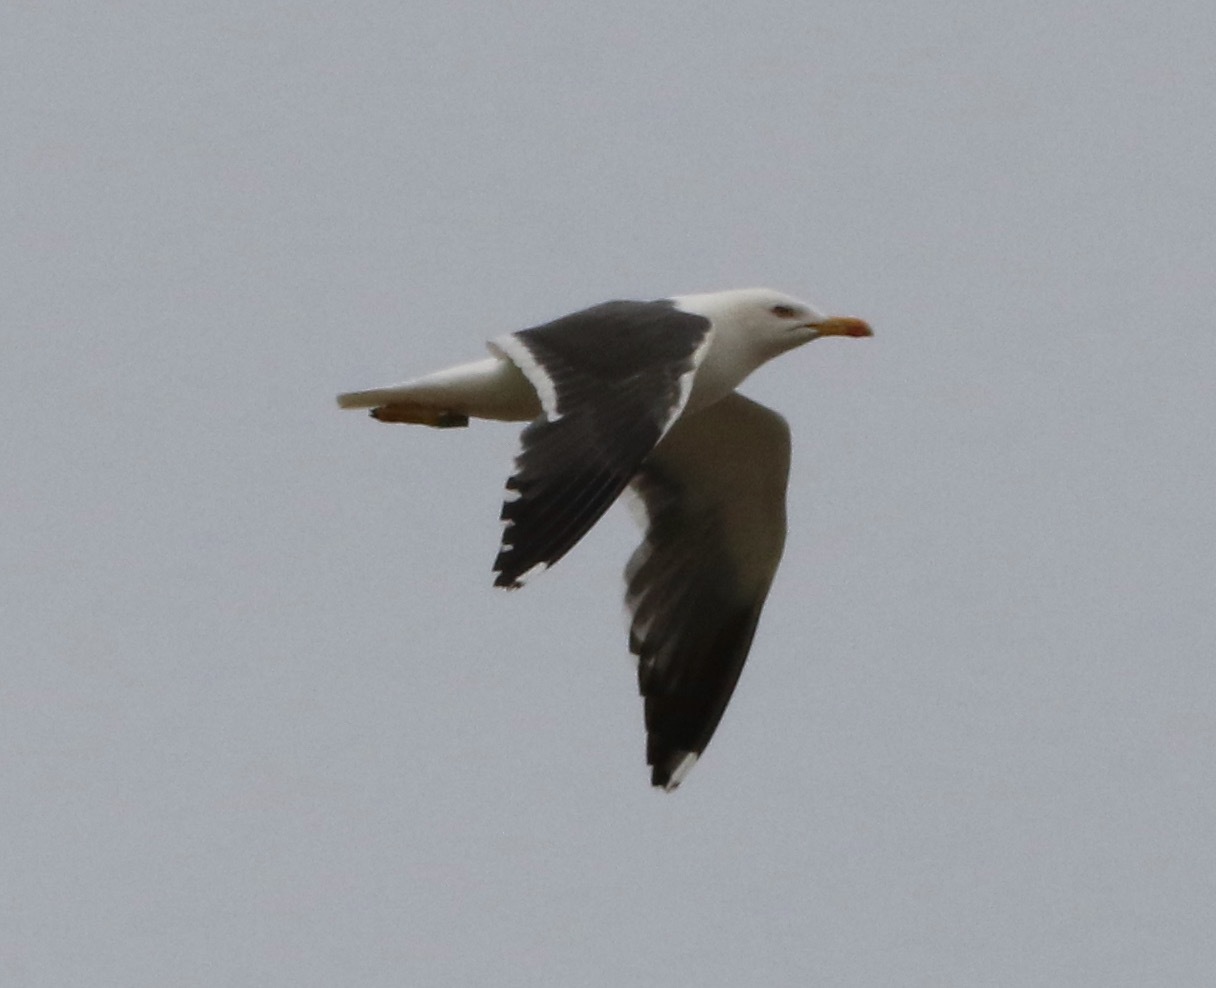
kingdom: Animalia
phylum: Chordata
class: Aves
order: Charadriiformes
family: Laridae
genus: Larus
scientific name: Larus fuscus
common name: Lesser black-backed gull
